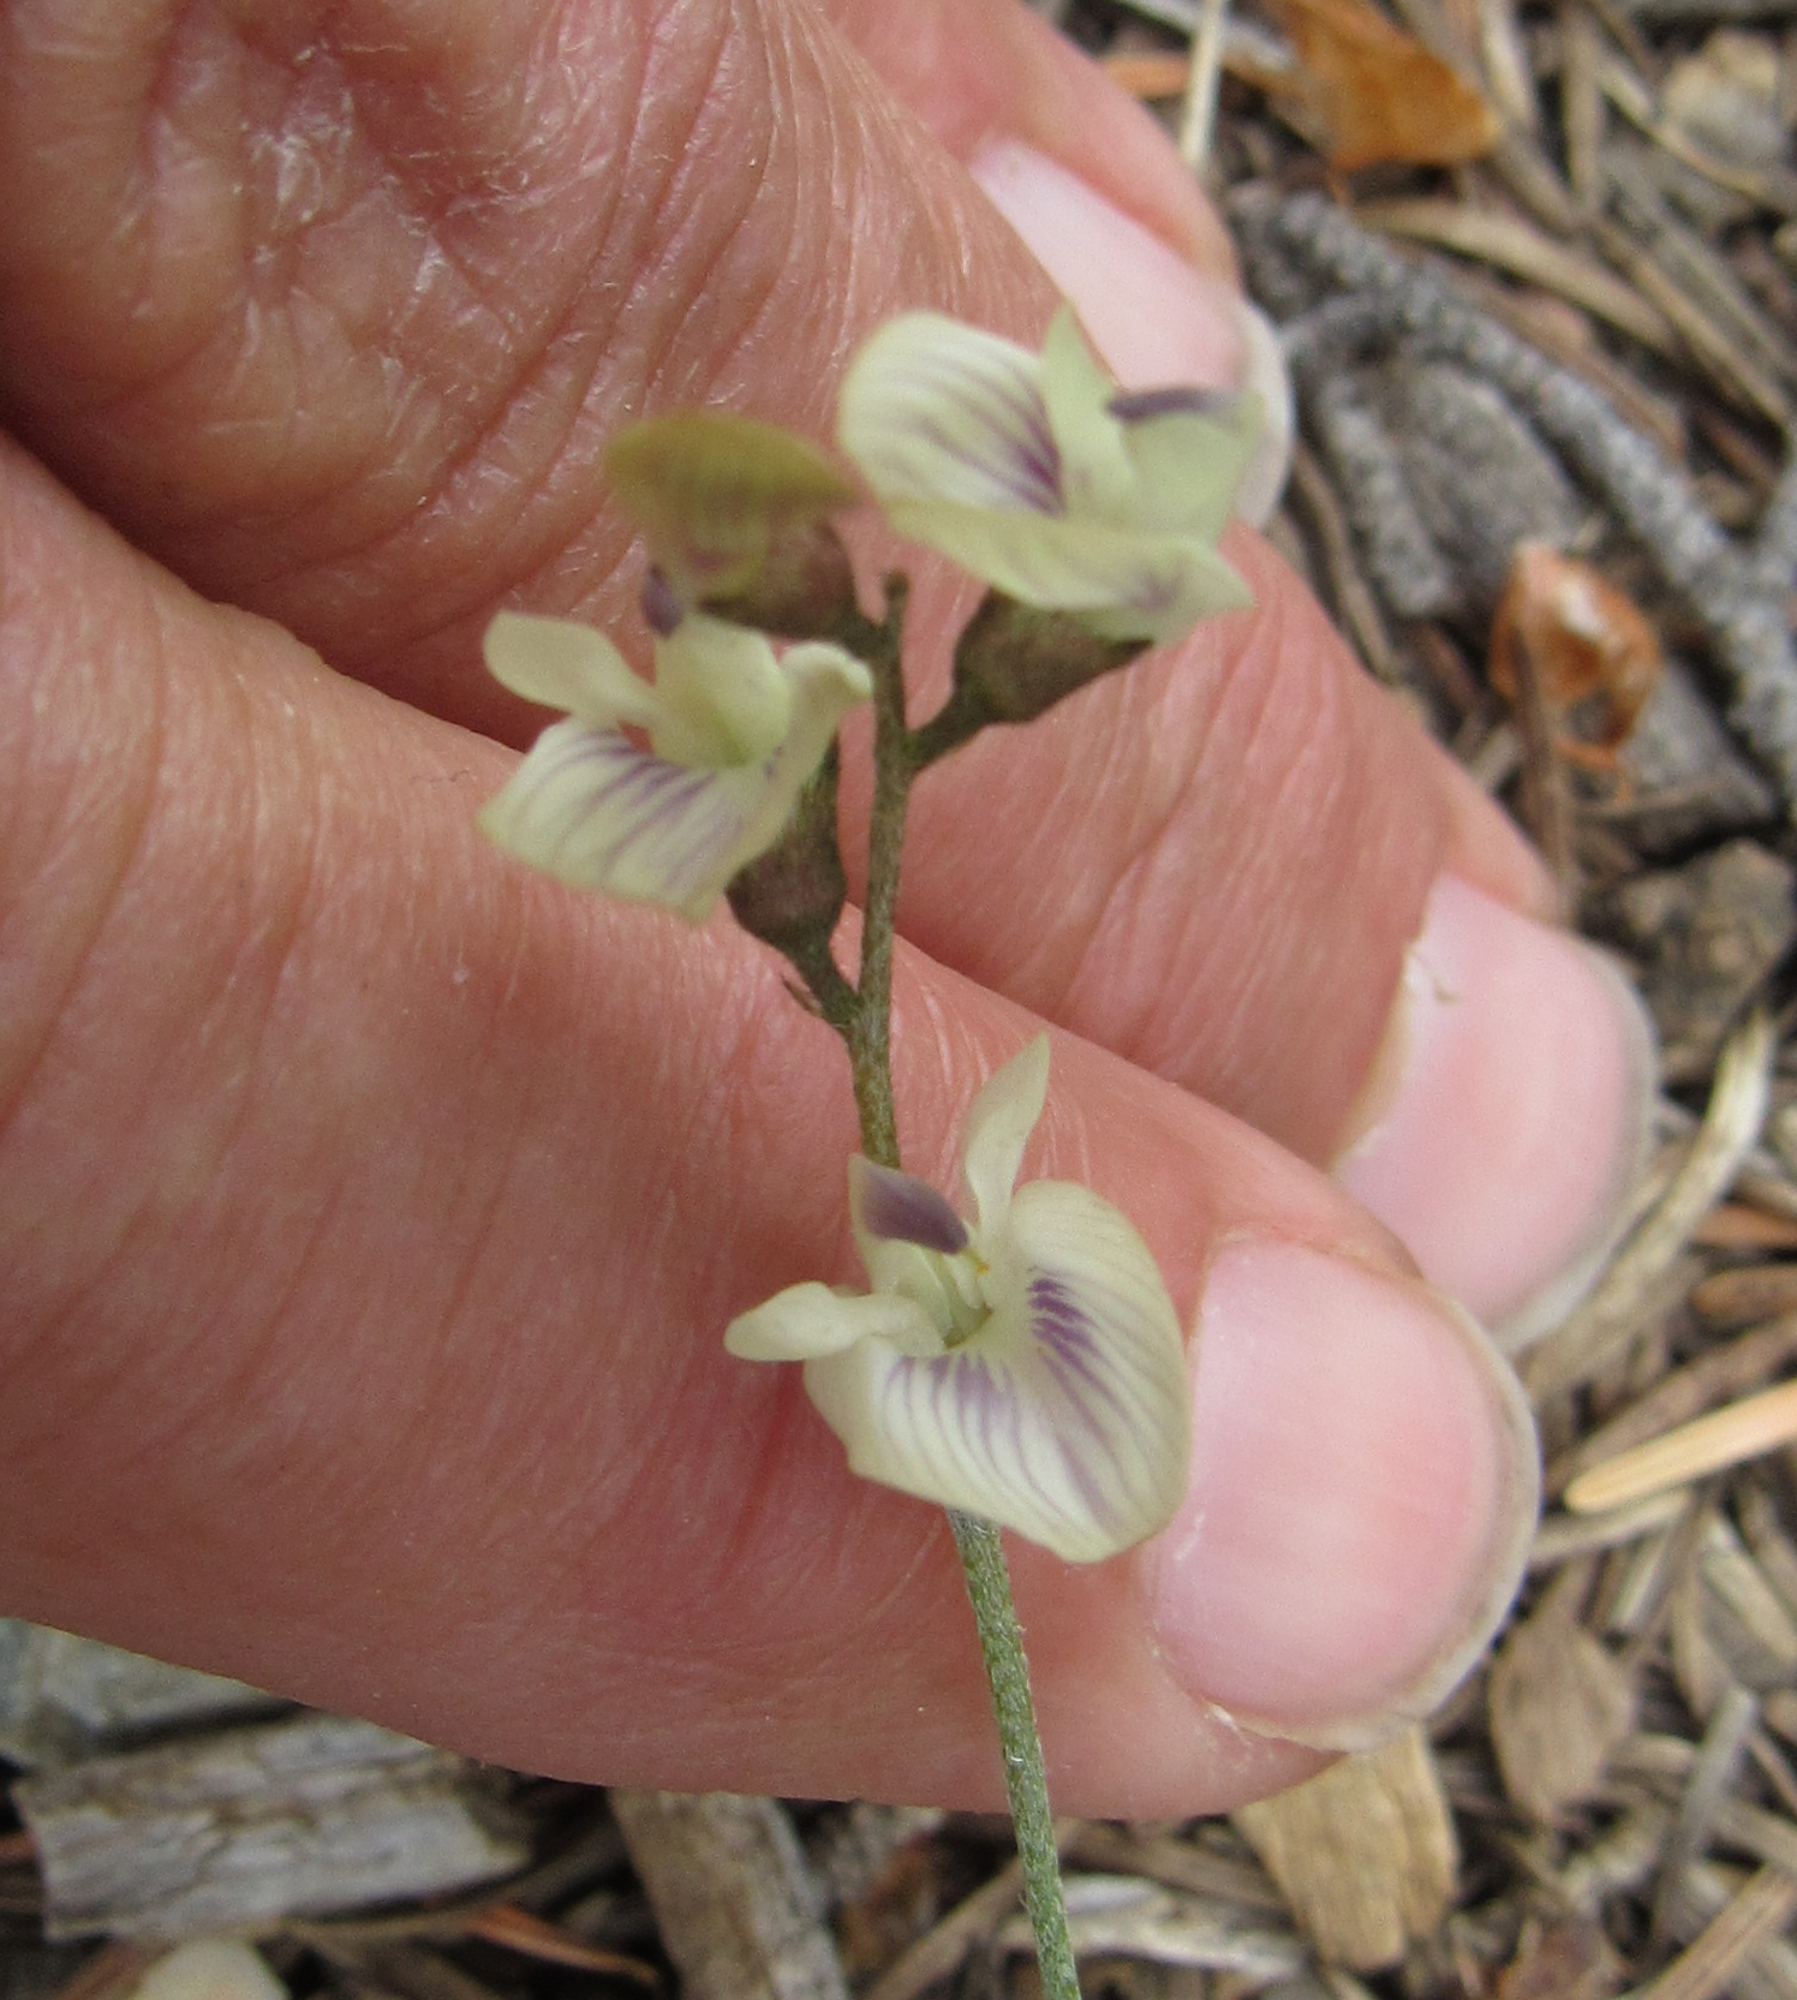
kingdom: Plantae
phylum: Tracheophyta
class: Magnoliopsida
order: Fabales
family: Fabaceae
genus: Astragalus
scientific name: Astragalus miser
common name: Timber milkvetch
